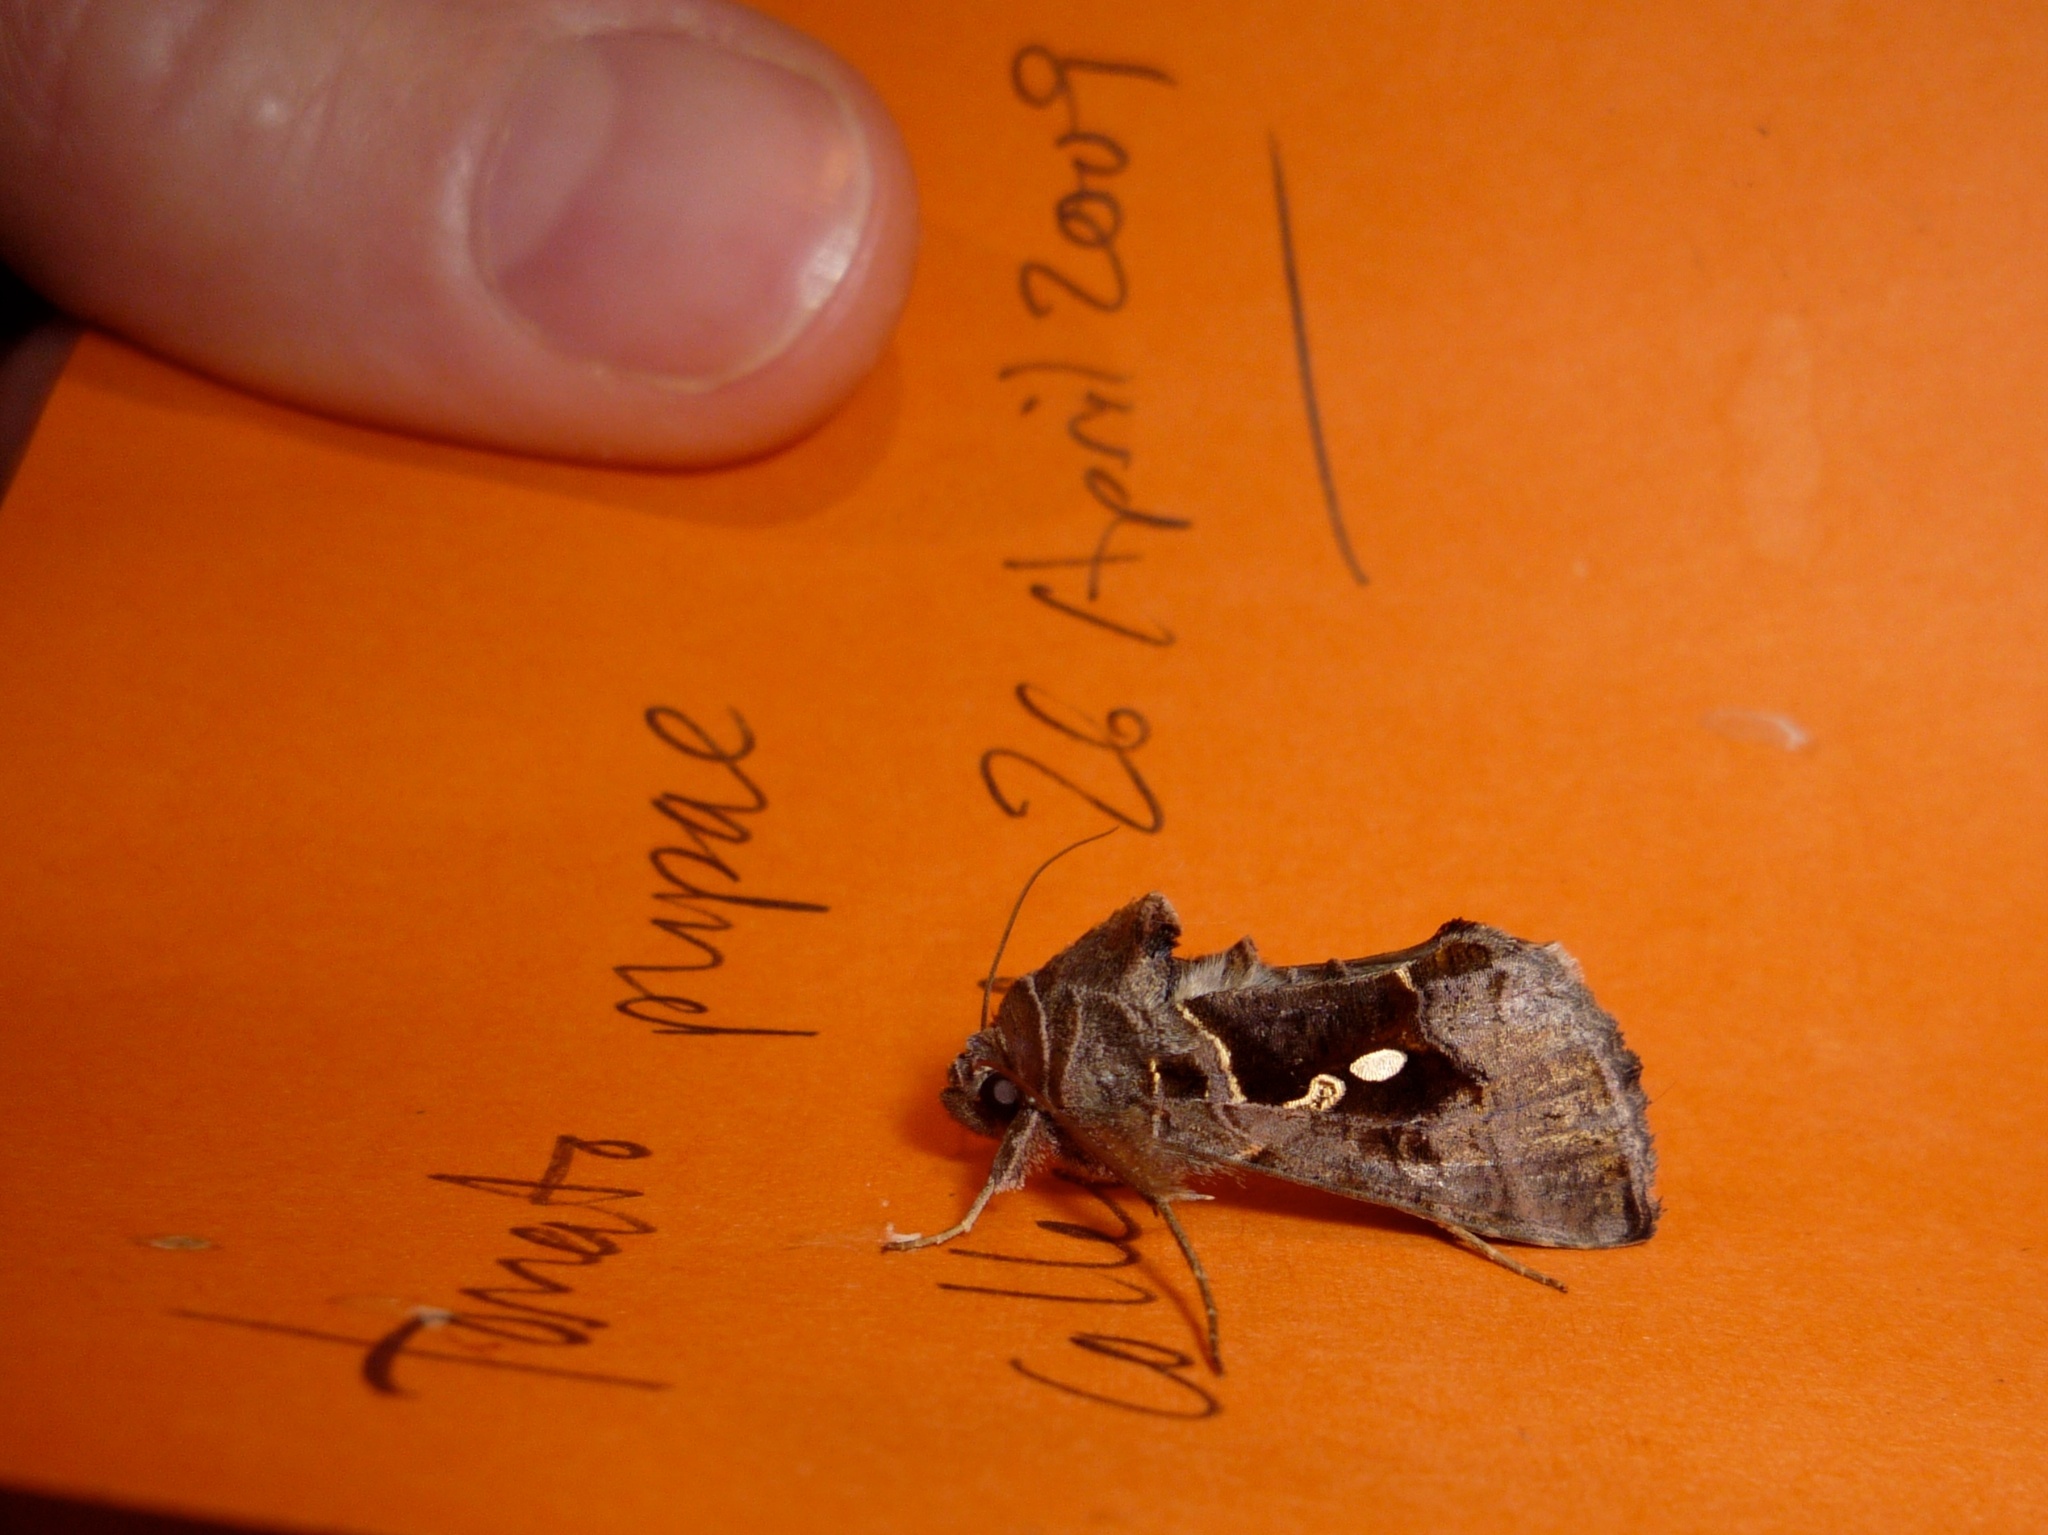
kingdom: Animalia
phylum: Arthropoda
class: Insecta
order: Lepidoptera
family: Noctuidae
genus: Chrysodeixis
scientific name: Chrysodeixis eriosoma
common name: Green garden looper
